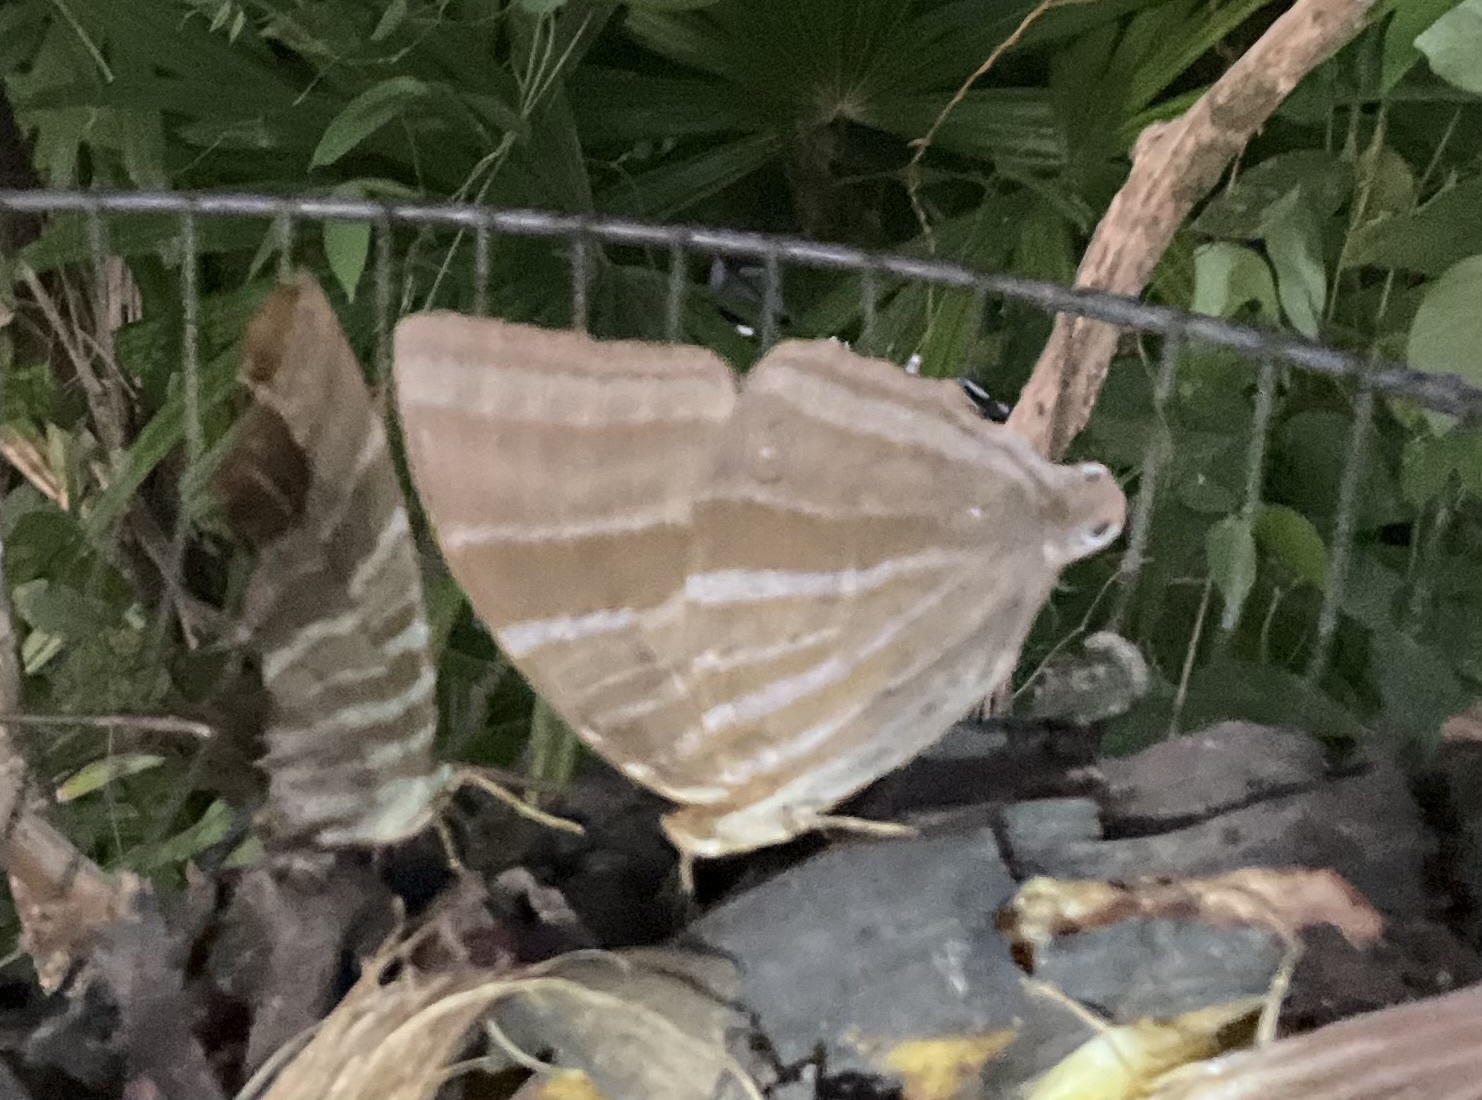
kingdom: Animalia
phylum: Arthropoda
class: Insecta
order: Lepidoptera
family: Nymphalidae
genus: Amathusia
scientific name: Amathusia phidippus
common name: Palm king
